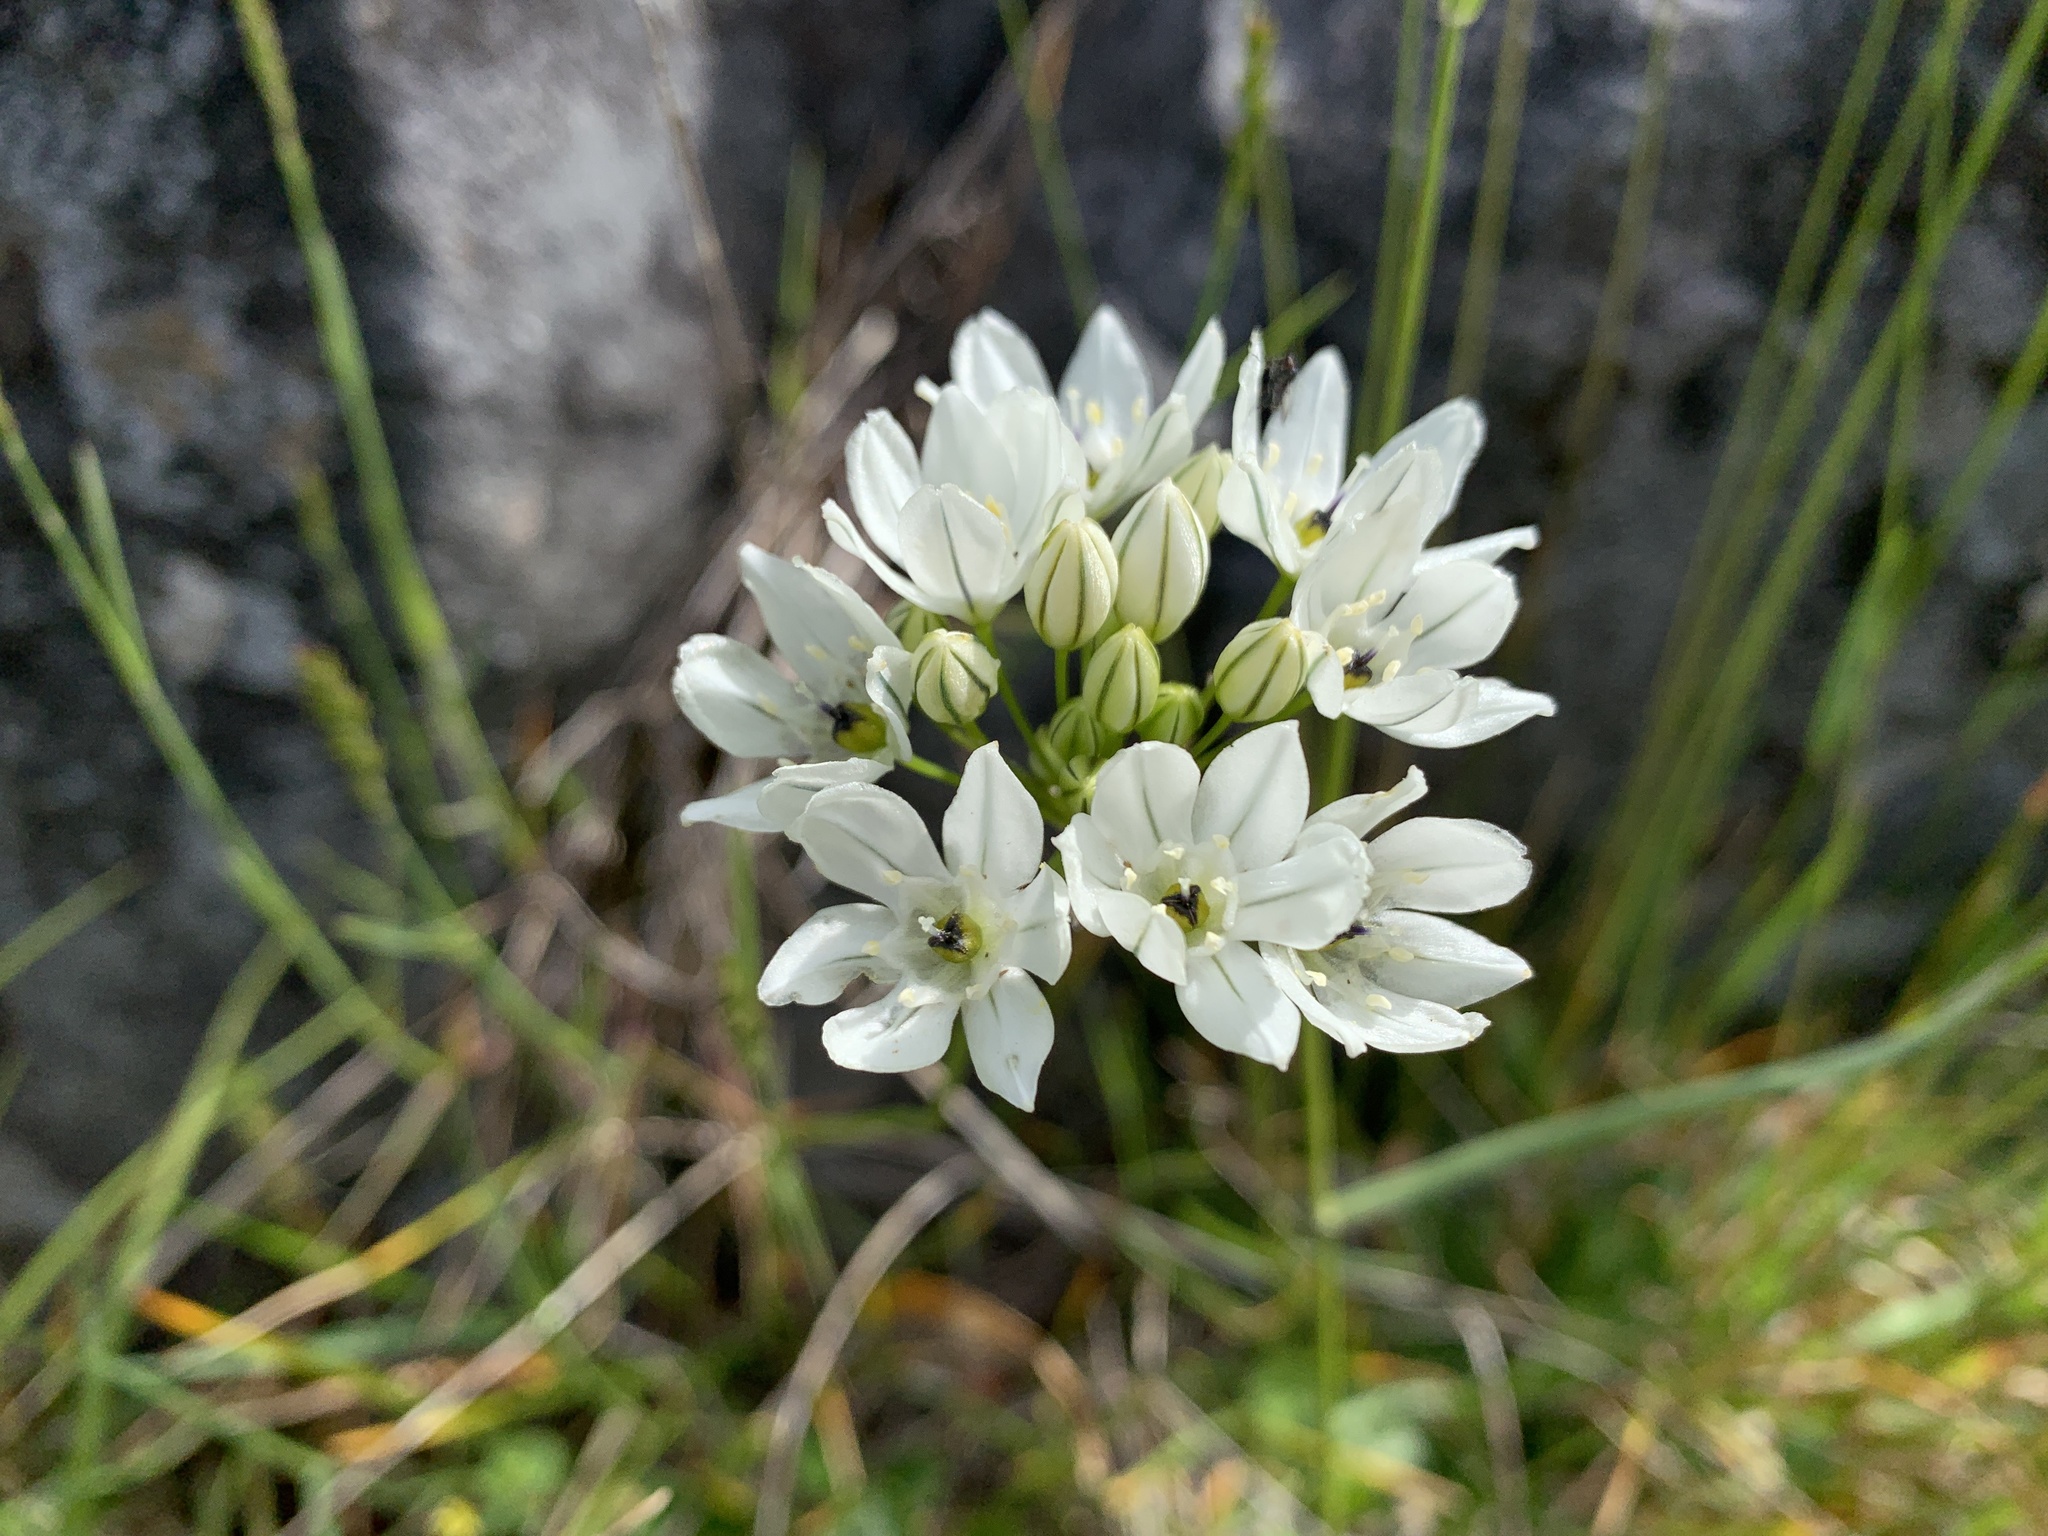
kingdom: Plantae
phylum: Tracheophyta
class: Liliopsida
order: Asparagales
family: Asparagaceae
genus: Triteleia
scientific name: Triteleia hyacinthina
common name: White brodiaea
